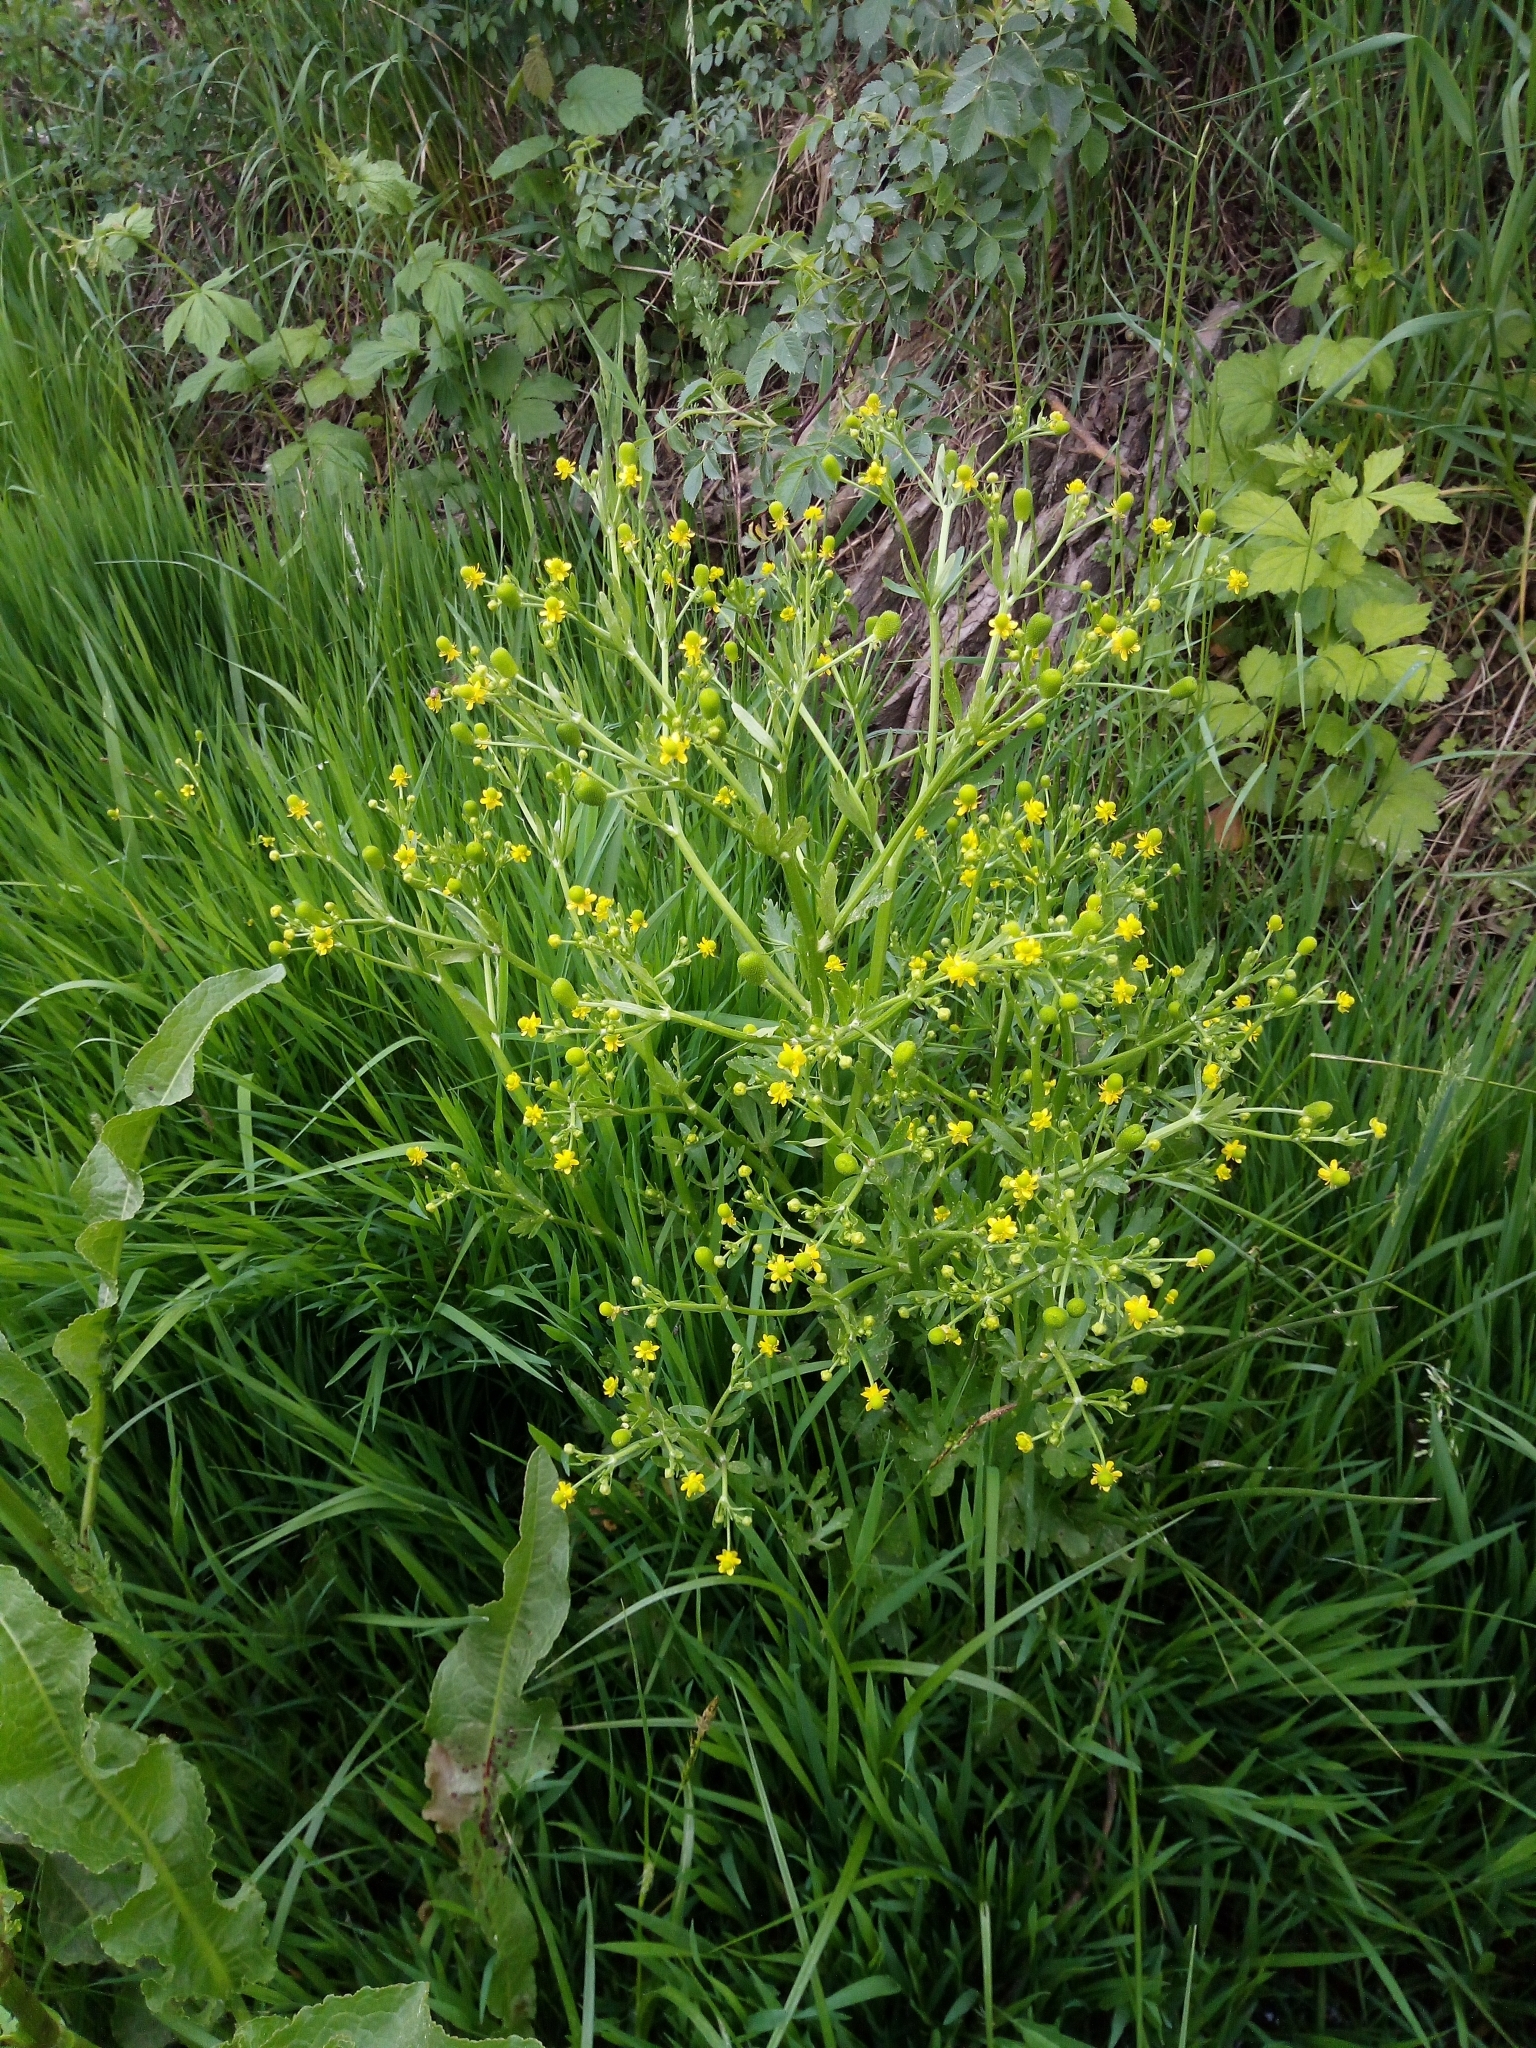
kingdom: Plantae
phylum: Tracheophyta
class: Magnoliopsida
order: Ranunculales
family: Ranunculaceae
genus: Ranunculus
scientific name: Ranunculus sceleratus
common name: Celery-leaved buttercup
